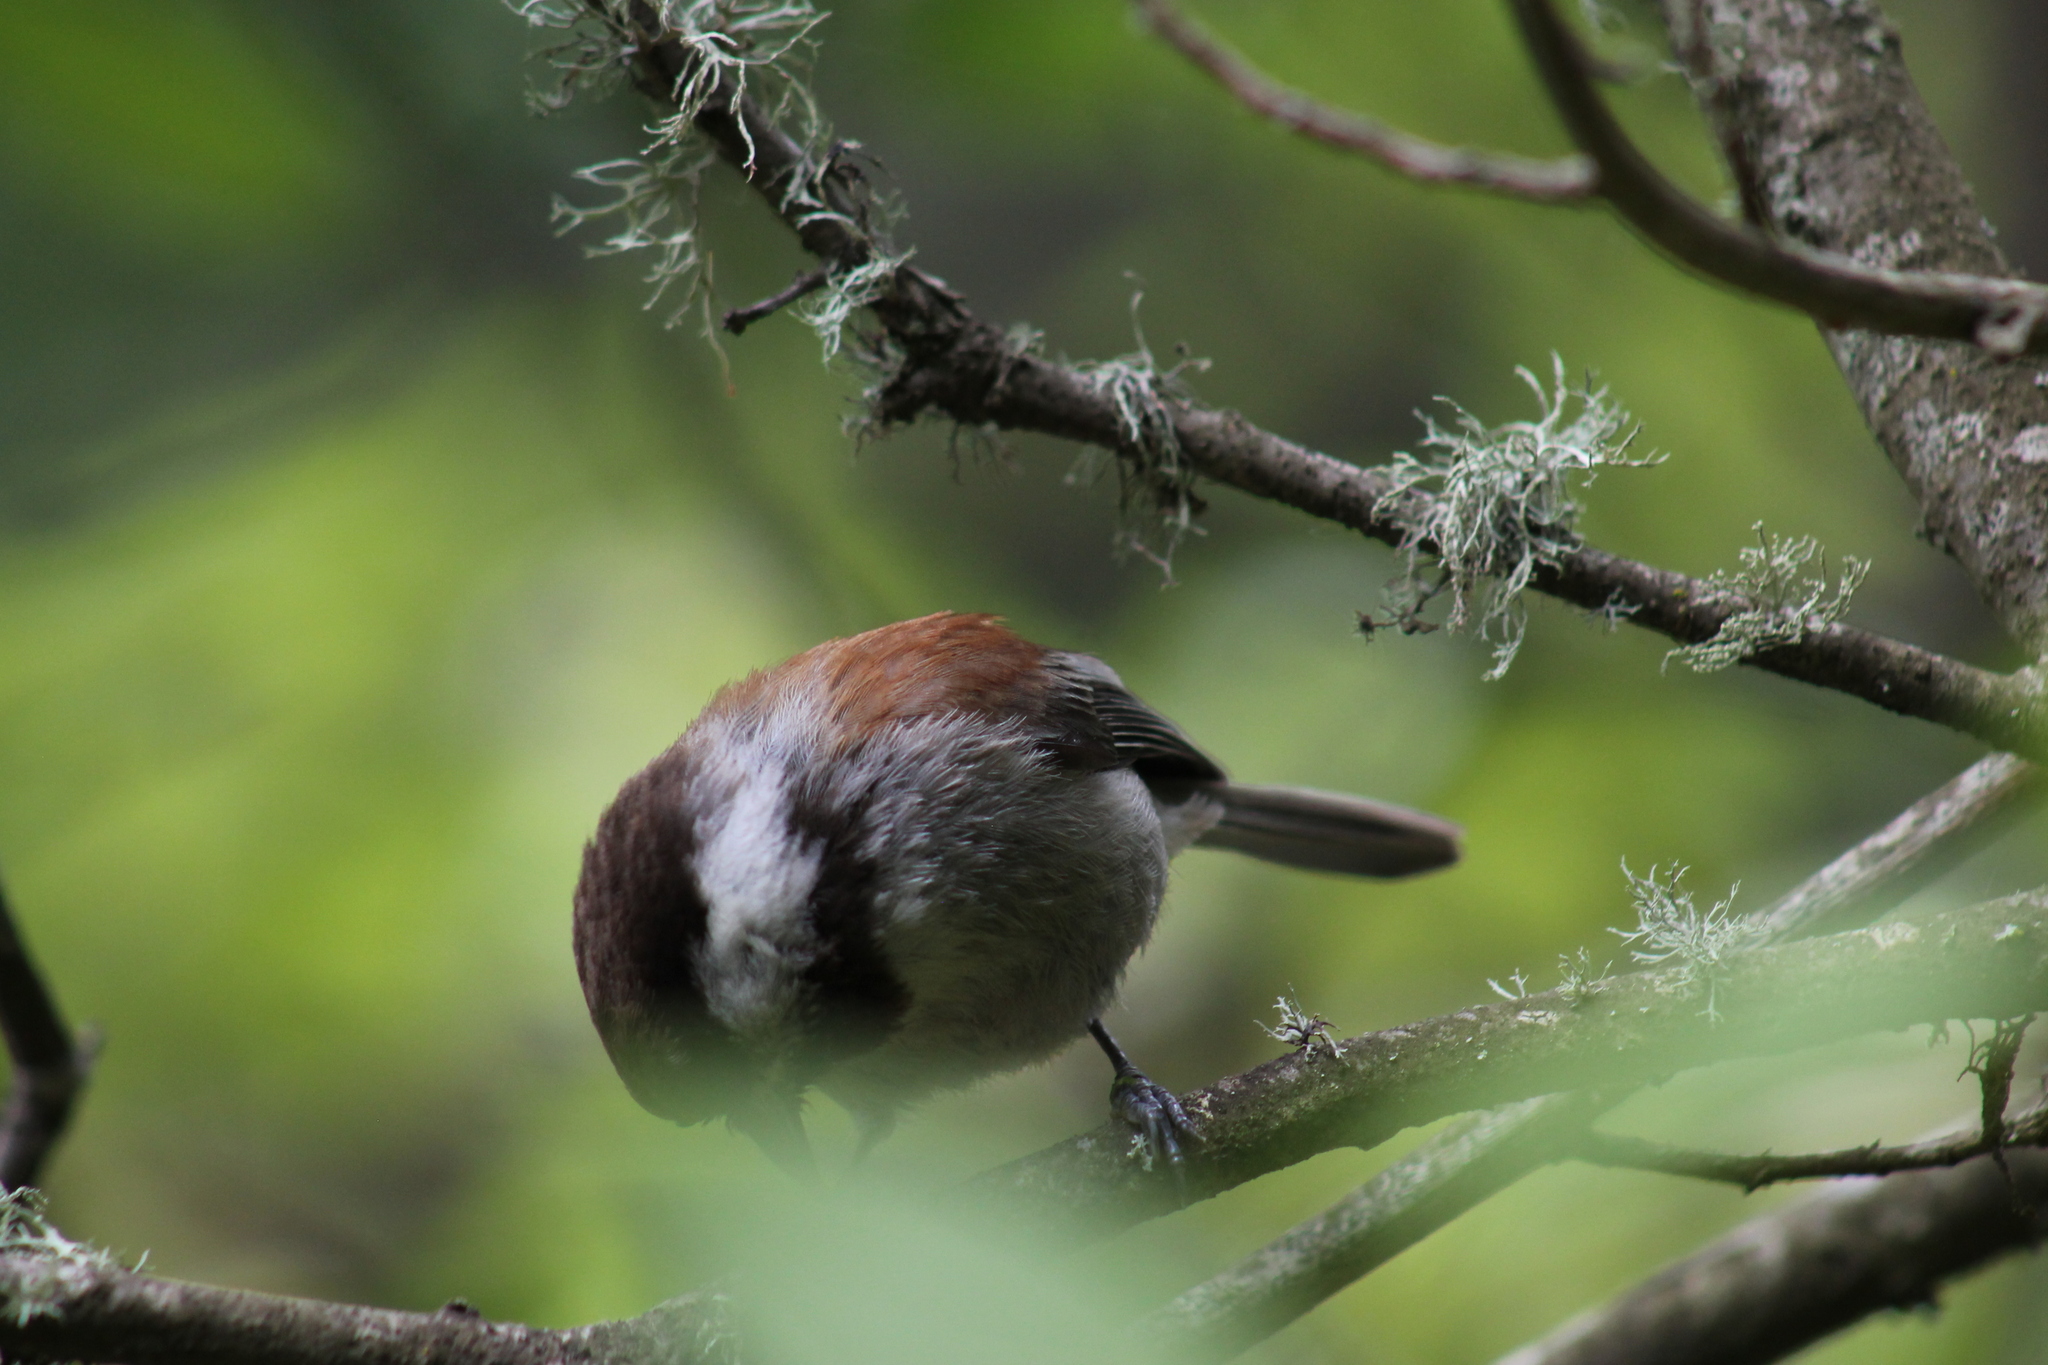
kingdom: Animalia
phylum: Chordata
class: Aves
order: Passeriformes
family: Paridae
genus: Poecile
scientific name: Poecile rufescens
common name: Chestnut-backed chickadee
